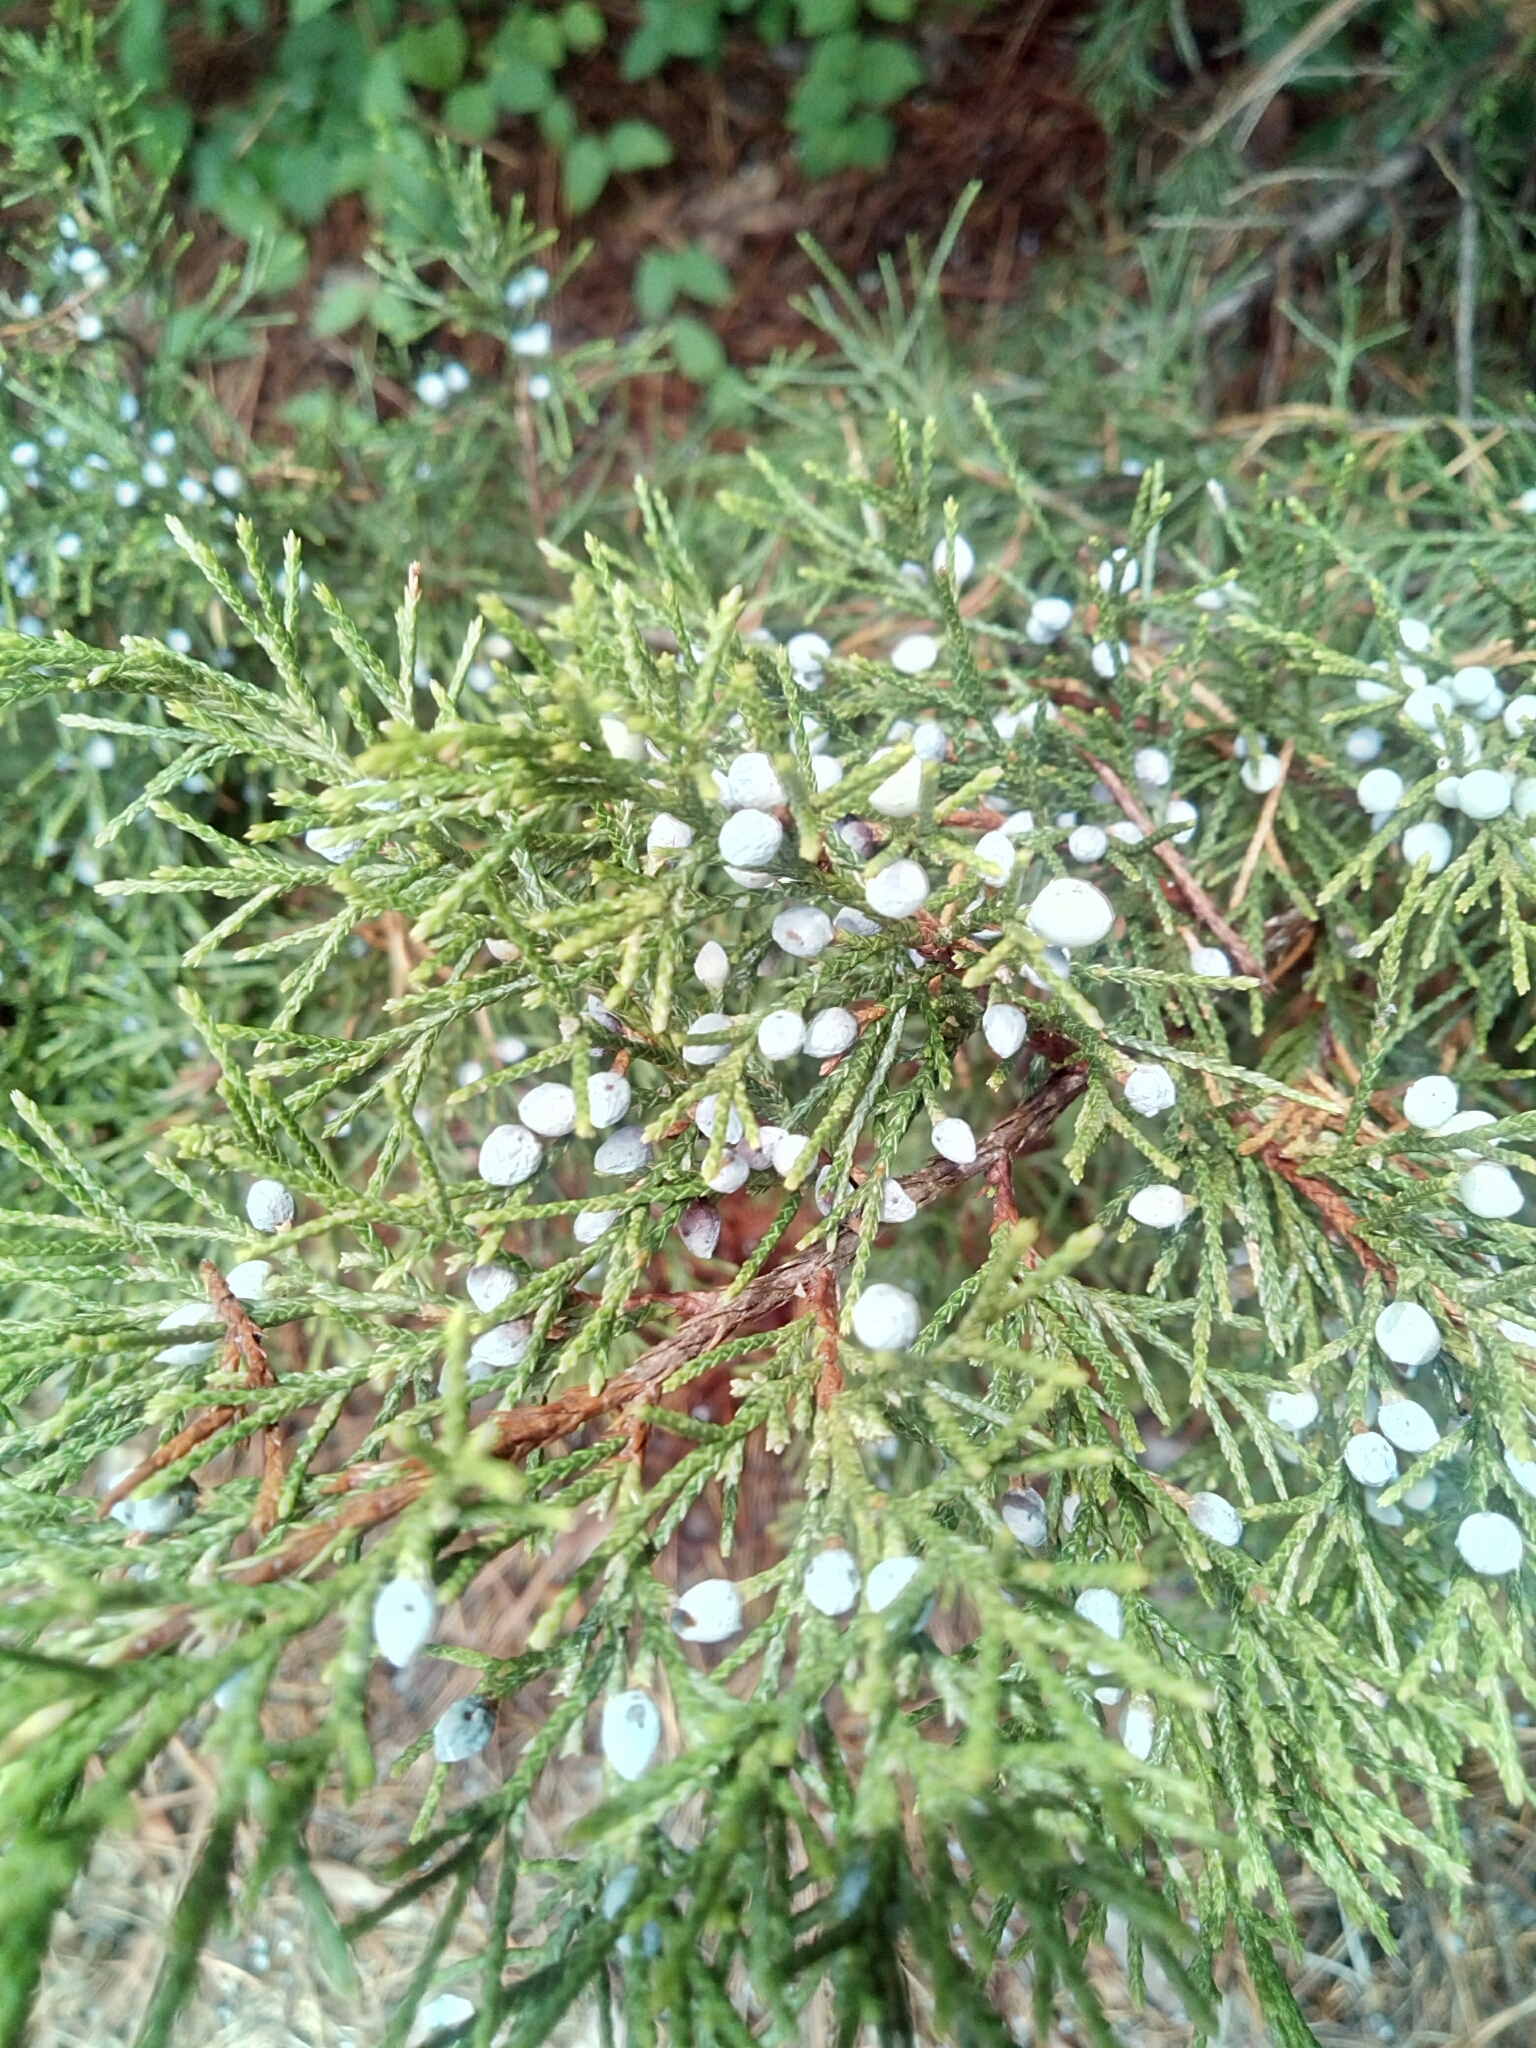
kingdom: Plantae
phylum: Tracheophyta
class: Pinopsida
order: Pinales
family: Cupressaceae
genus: Juniperus
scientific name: Juniperus virginiana
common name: Red juniper
